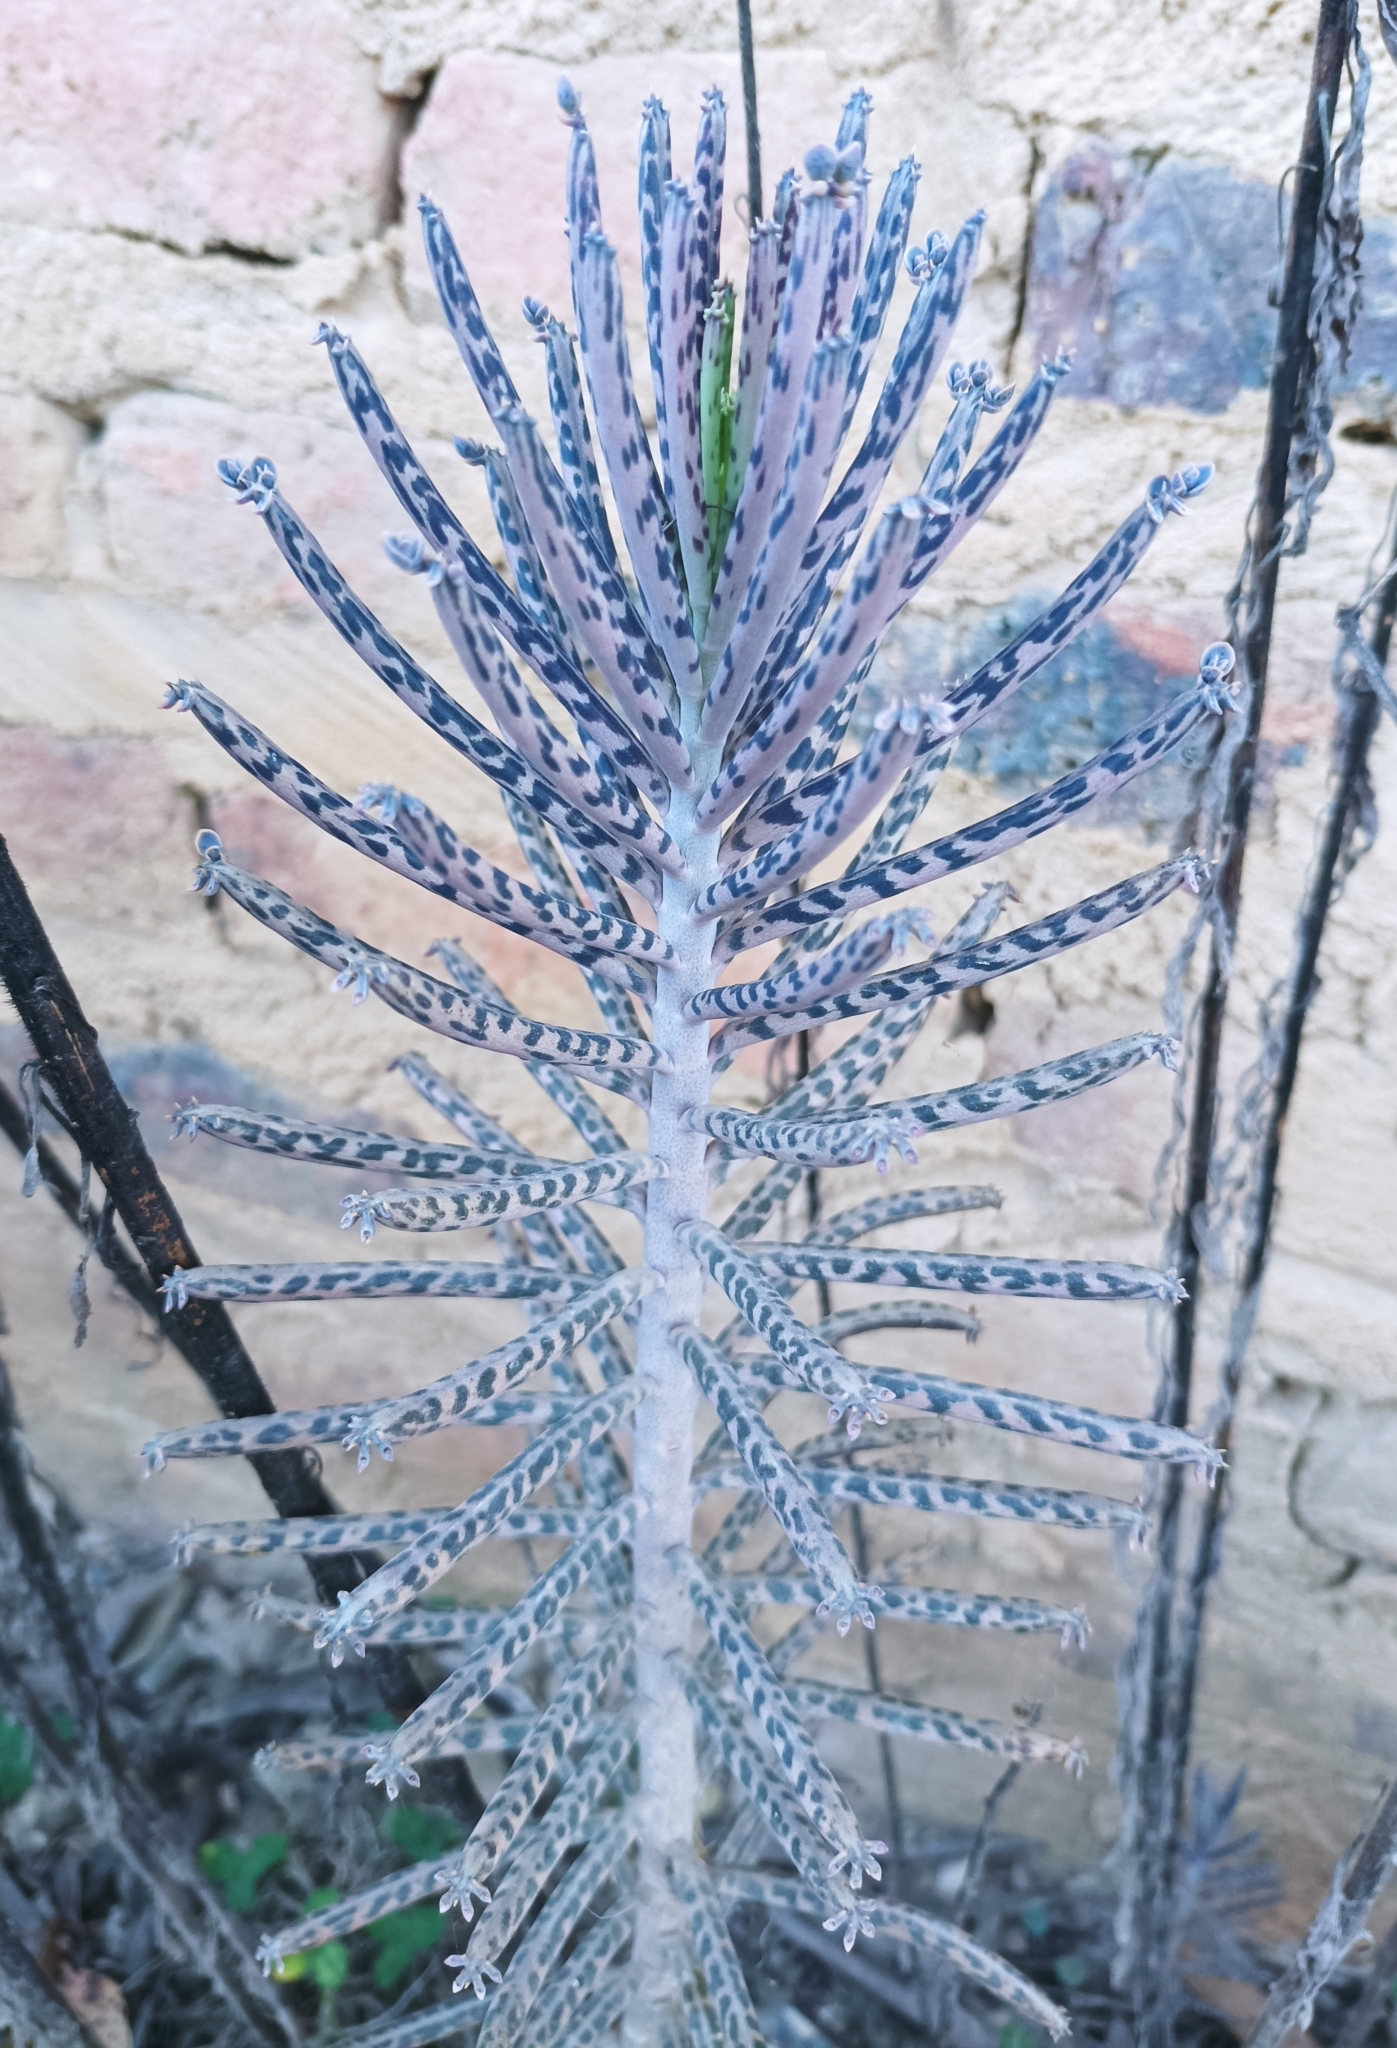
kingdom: Plantae
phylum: Tracheophyta
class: Magnoliopsida
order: Saxifragales
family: Crassulaceae
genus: Kalanchoe
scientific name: Kalanchoe delagoensis
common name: Chandelier plant
